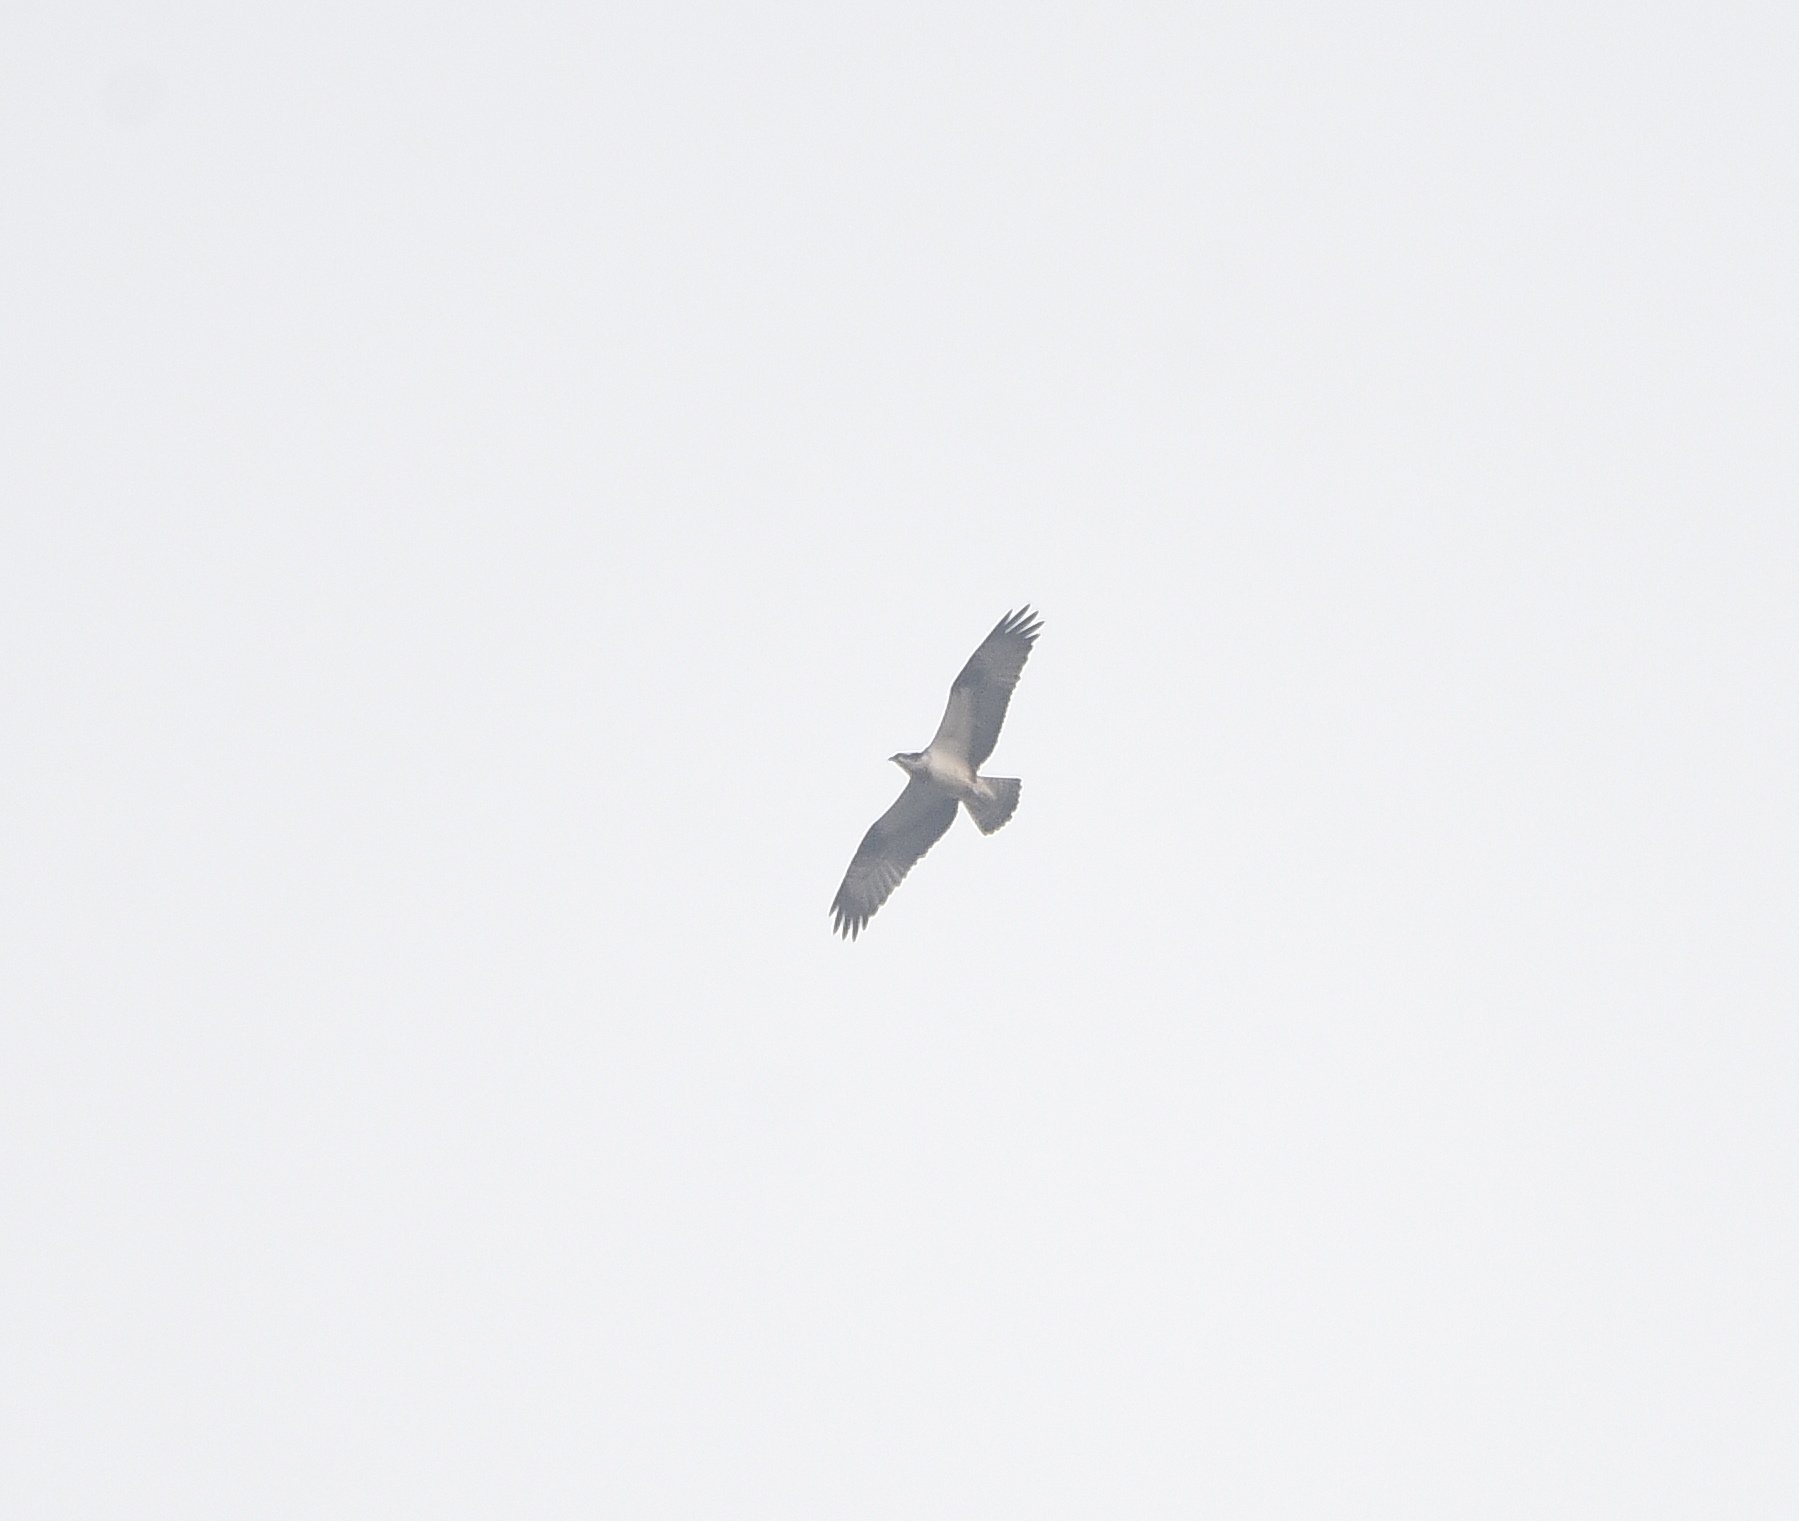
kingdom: Animalia
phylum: Chordata
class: Aves
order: Accipitriformes
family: Pandionidae
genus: Pandion
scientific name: Pandion haliaetus
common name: Osprey
